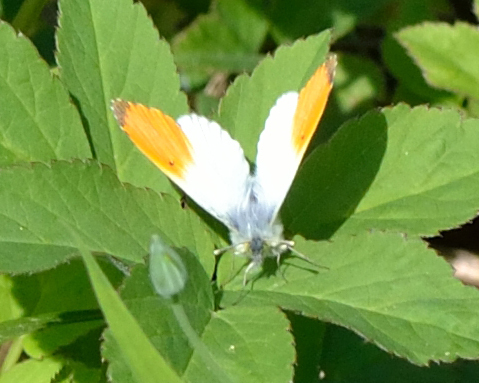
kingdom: Animalia
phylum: Arthropoda
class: Insecta
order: Lepidoptera
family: Pieridae
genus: Anthocharis
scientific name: Anthocharis cardamines
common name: Orange-tip
